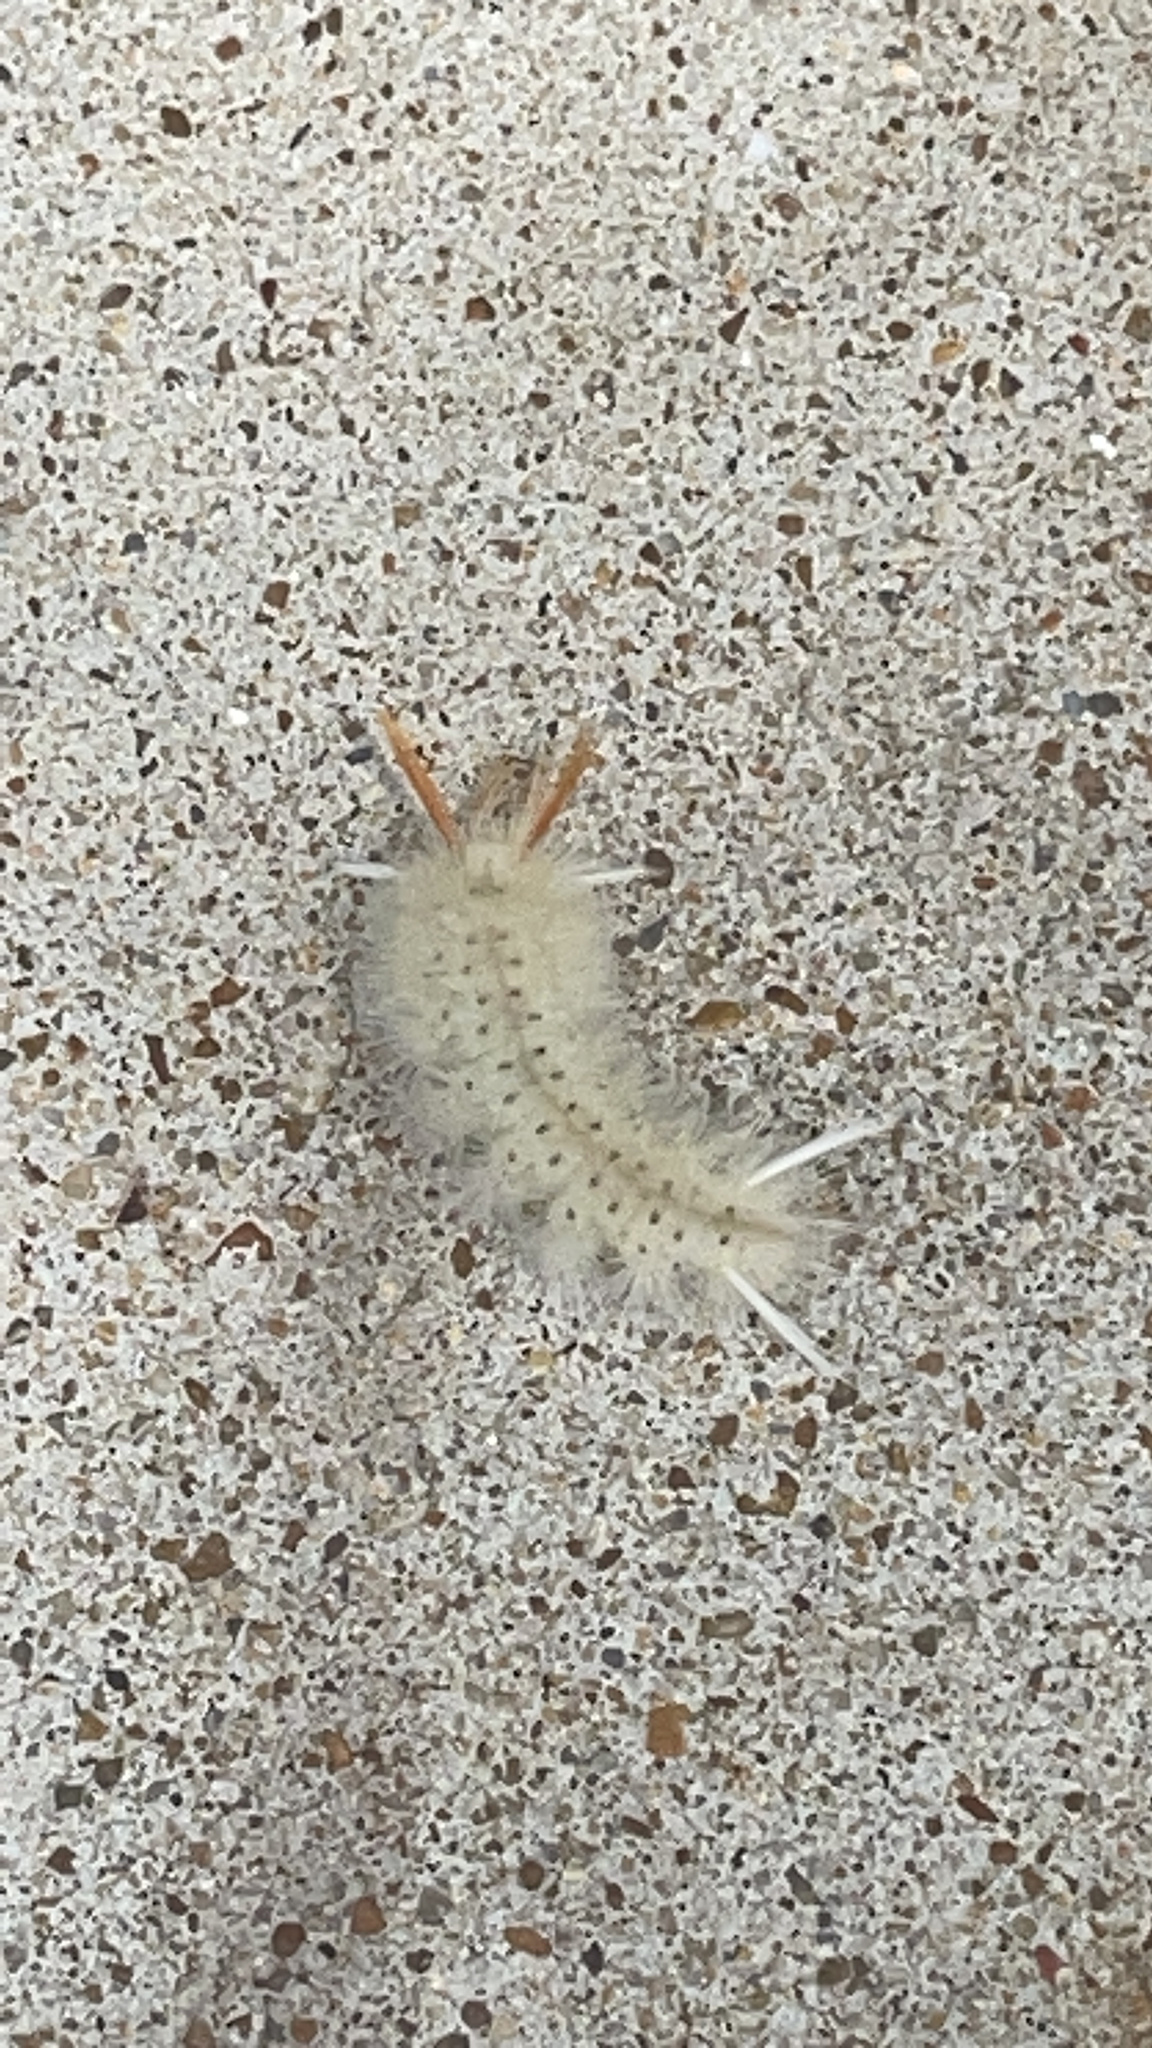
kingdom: Animalia
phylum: Arthropoda
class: Insecta
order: Lepidoptera
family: Erebidae
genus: Halysidota
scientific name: Halysidota harrisii
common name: Sycamore tussock moth
